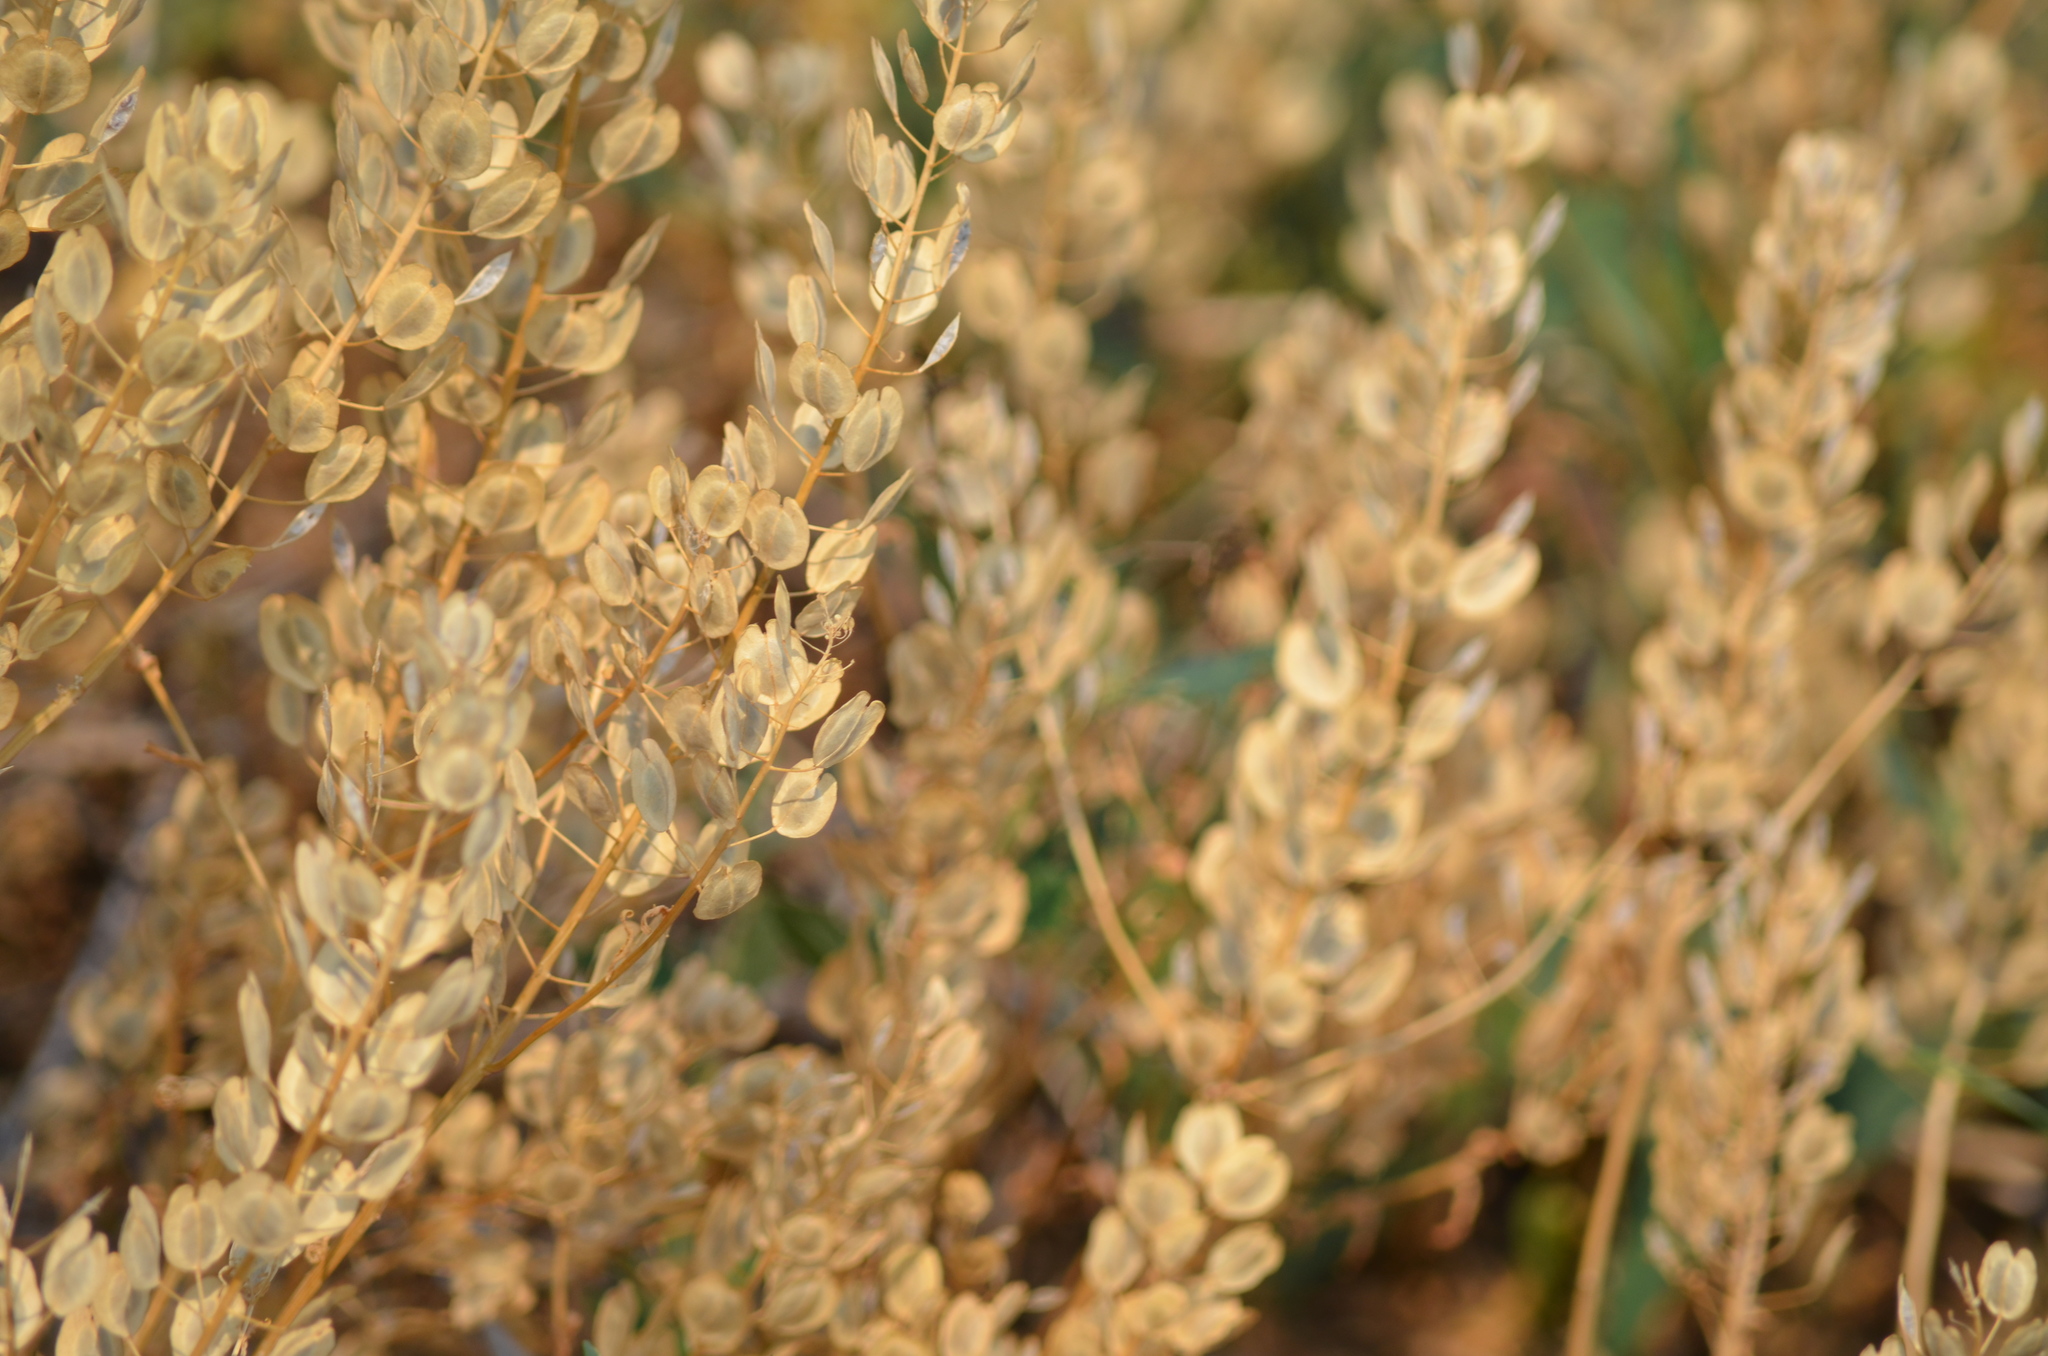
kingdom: Plantae
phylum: Tracheophyta
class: Magnoliopsida
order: Brassicales
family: Brassicaceae
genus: Thlaspi
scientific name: Thlaspi arvense
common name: Field pennycress
